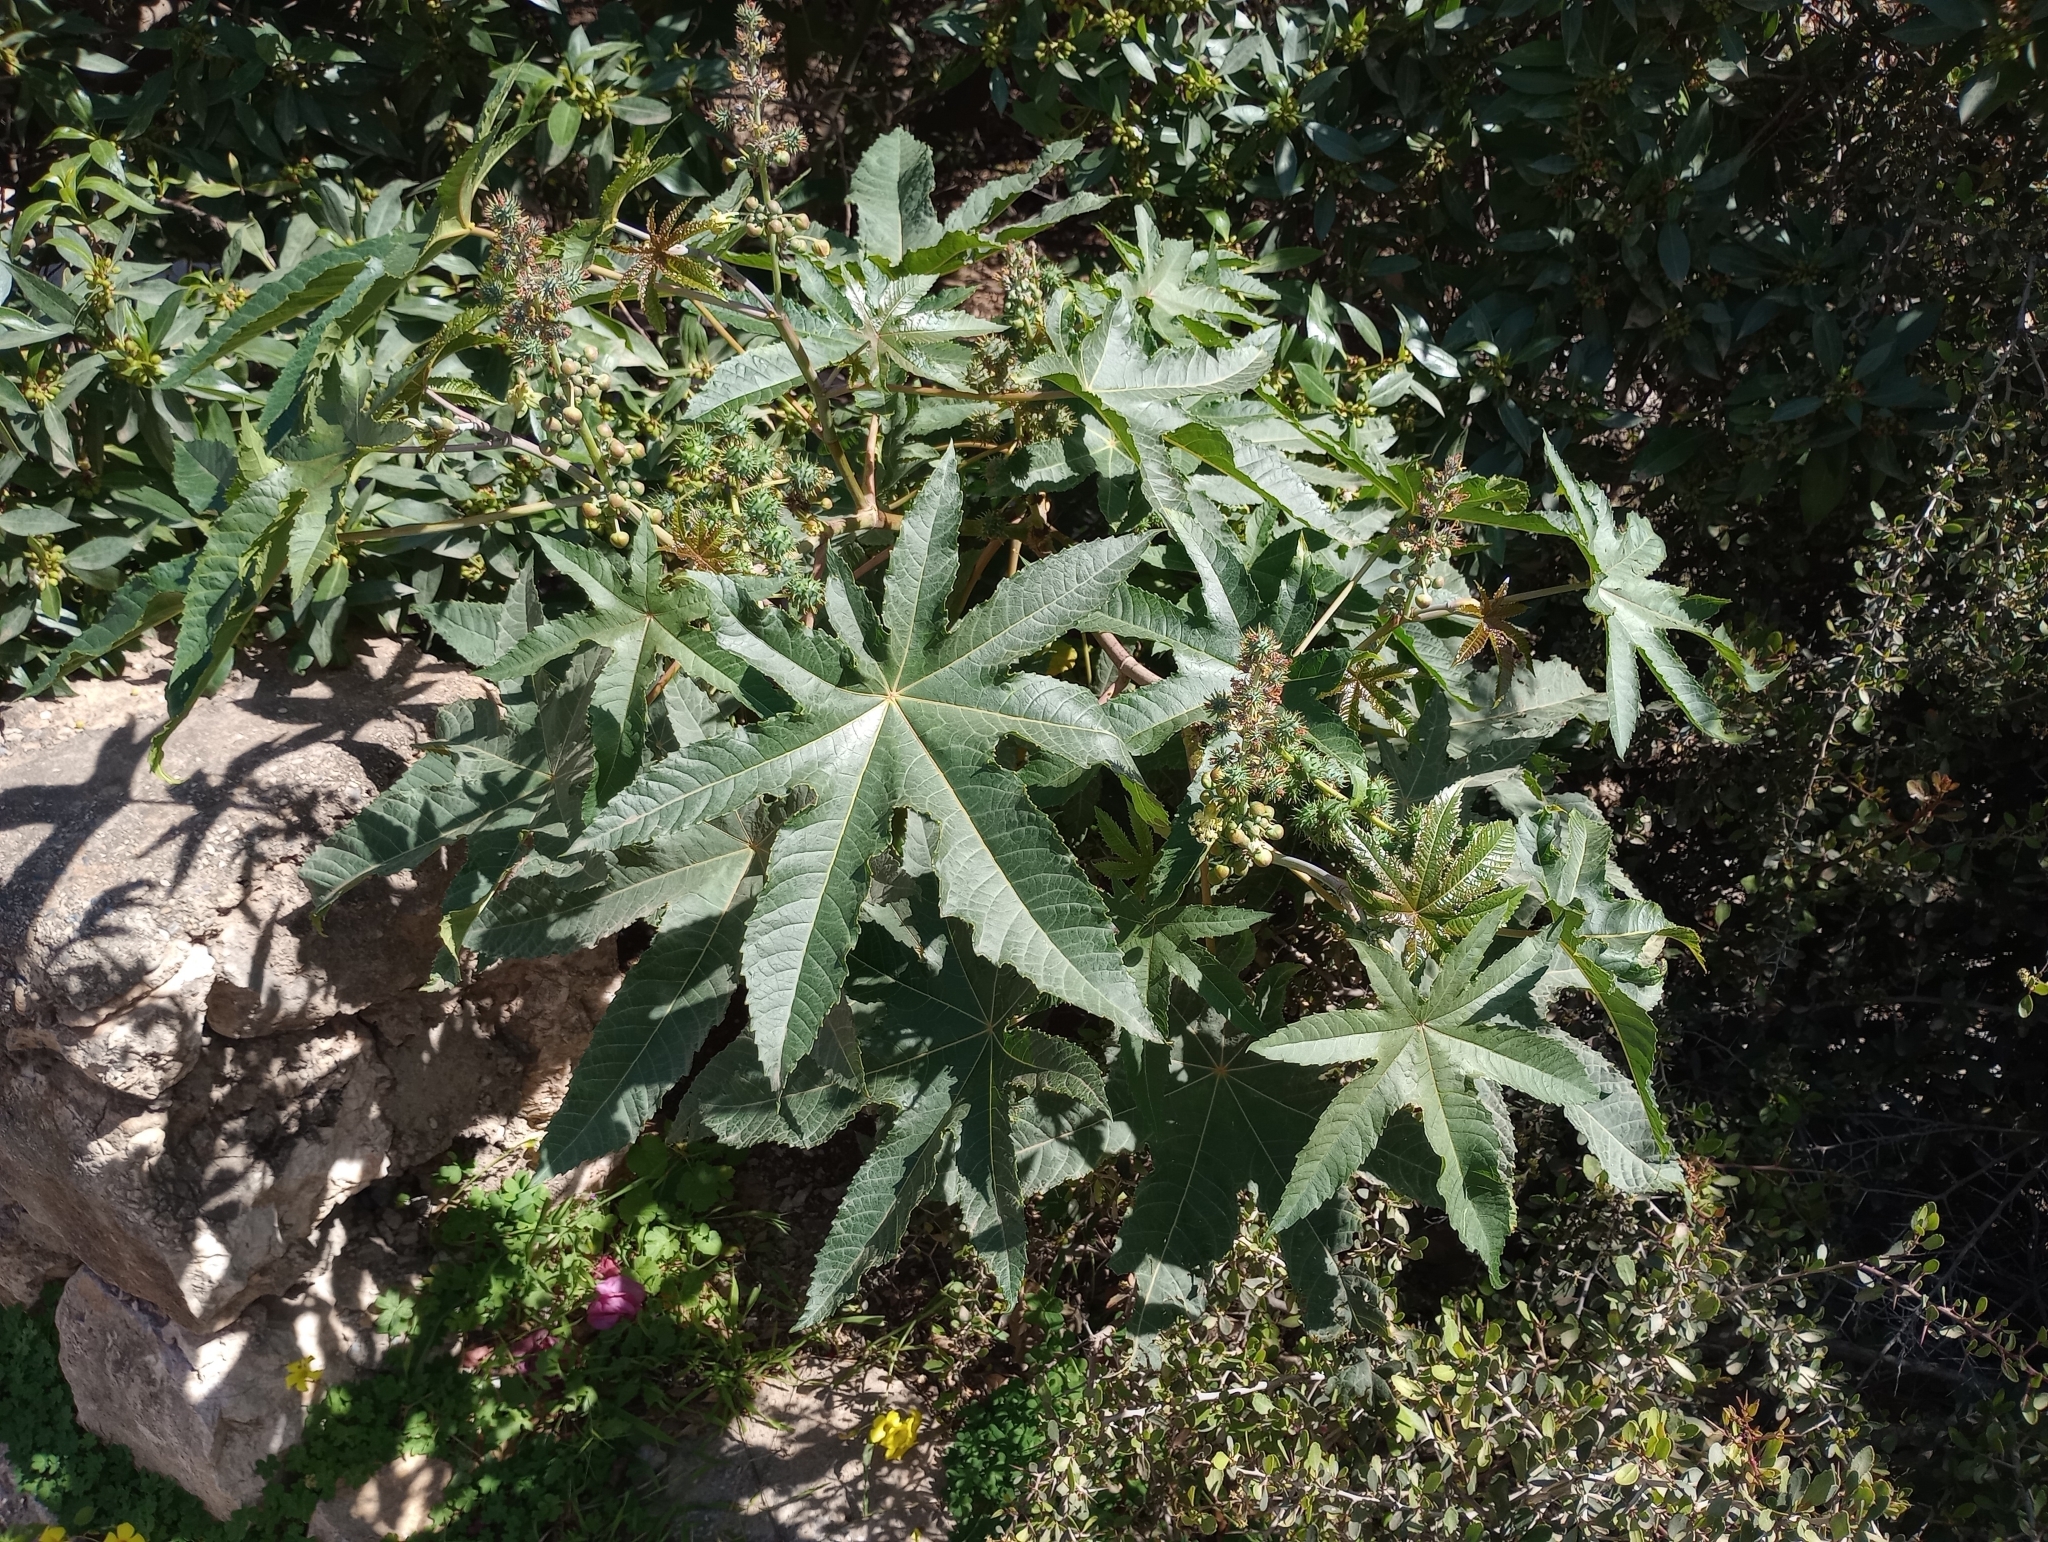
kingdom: Plantae
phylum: Tracheophyta
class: Magnoliopsida
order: Malpighiales
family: Euphorbiaceae
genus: Ricinus
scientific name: Ricinus communis
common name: Castor-oil-plant
